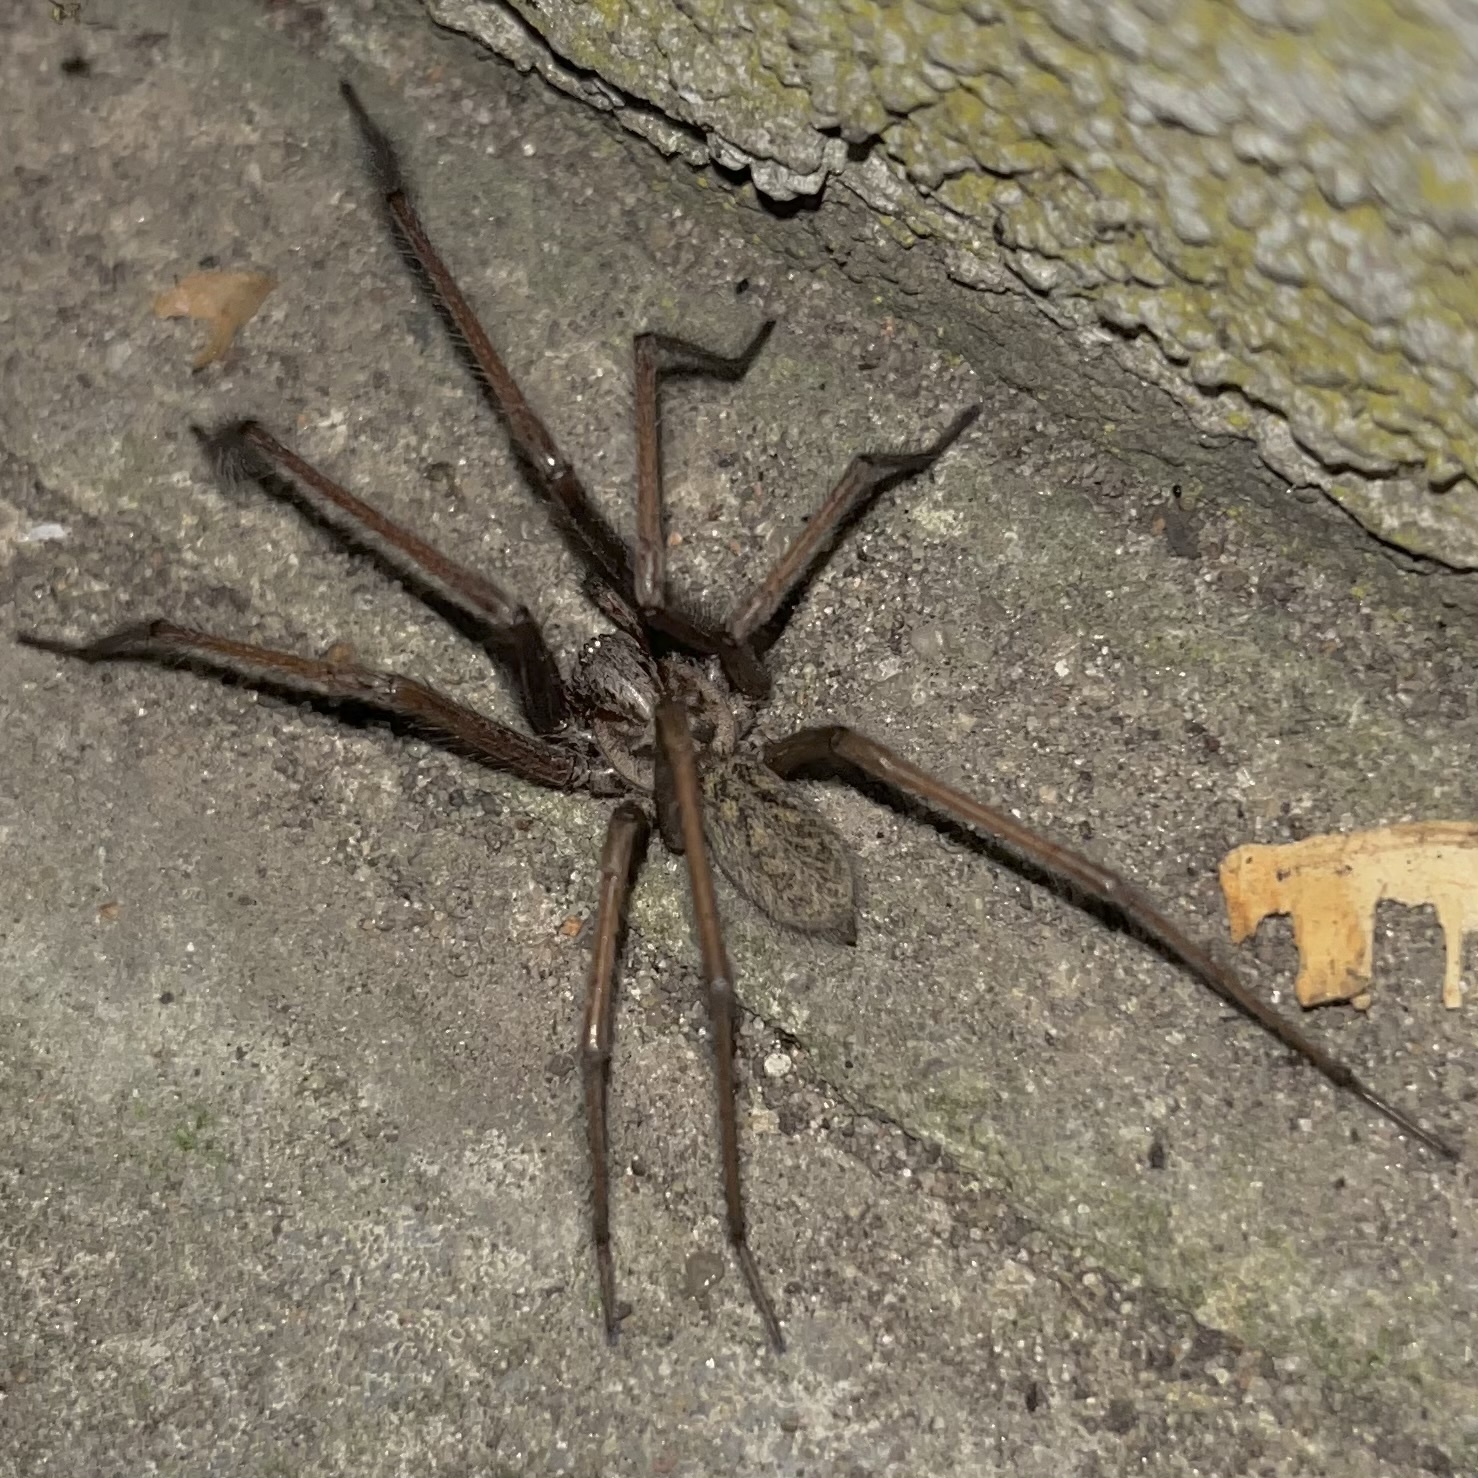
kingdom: Animalia
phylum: Arthropoda
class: Arachnida
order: Araneae
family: Agelenidae
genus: Eratigena
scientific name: Eratigena atrica
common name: Giant house spider
